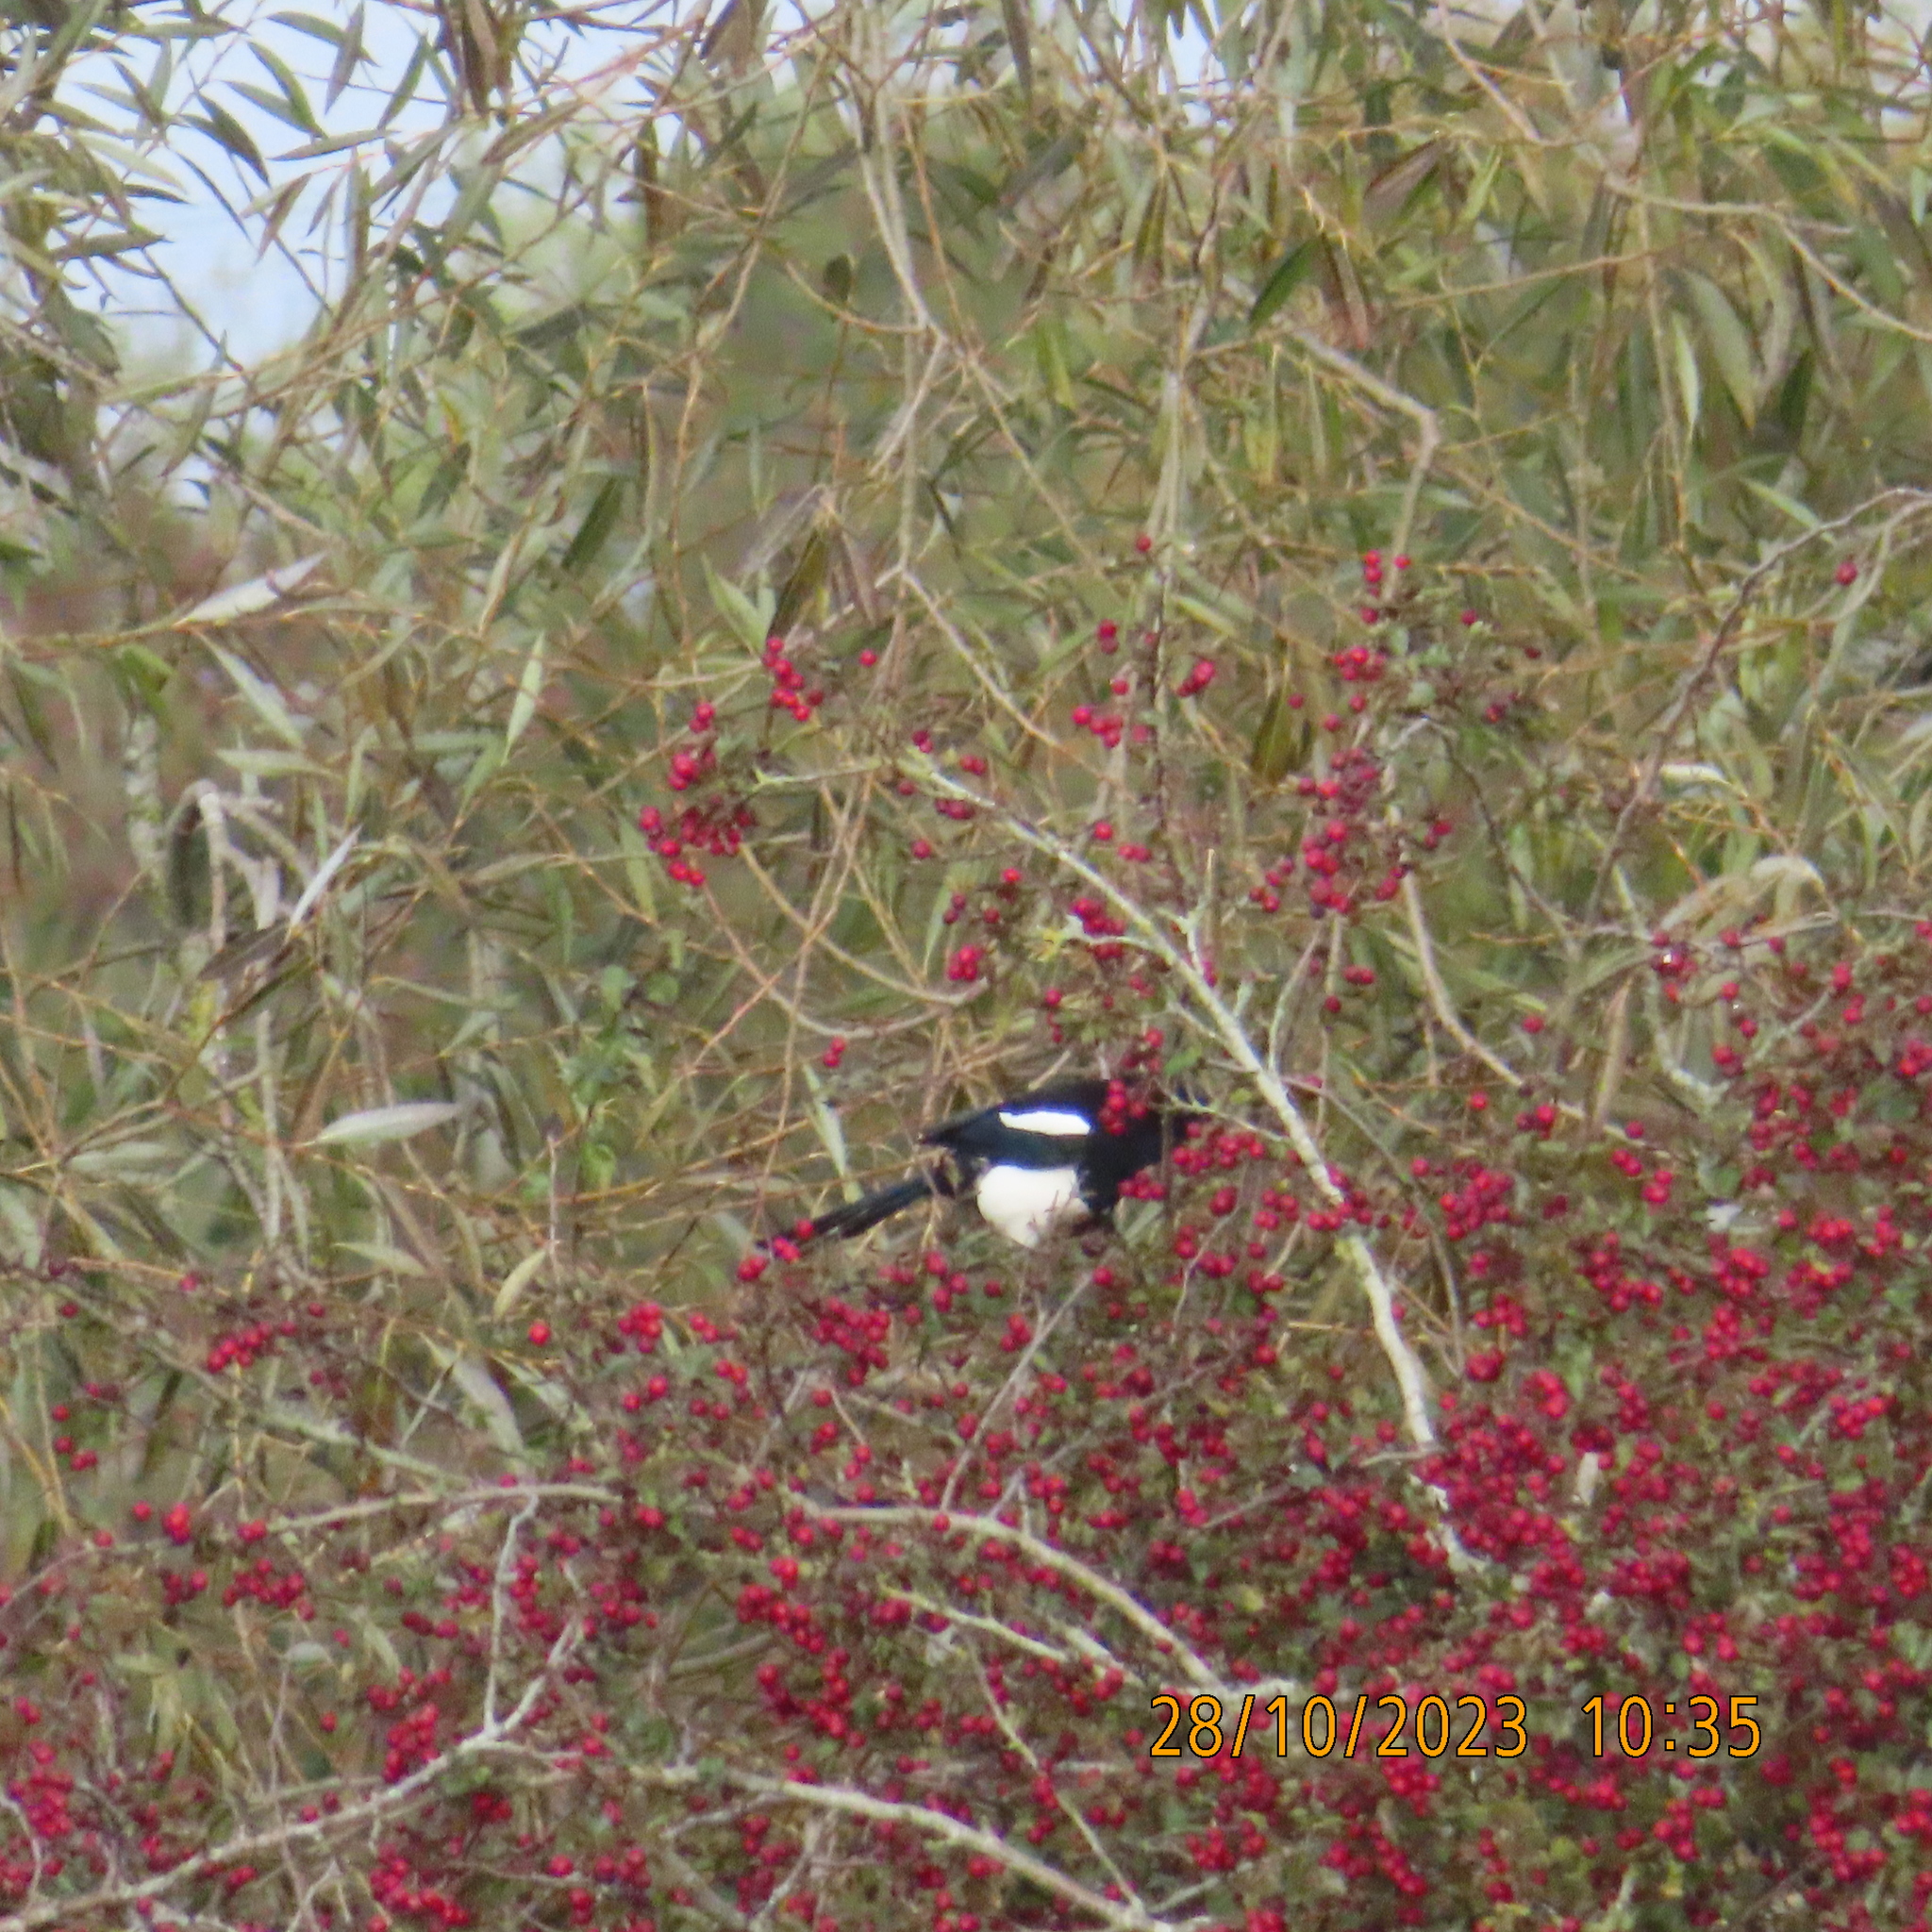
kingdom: Animalia
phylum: Chordata
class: Aves
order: Passeriformes
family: Corvidae
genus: Pica
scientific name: Pica pica
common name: Eurasian magpie
